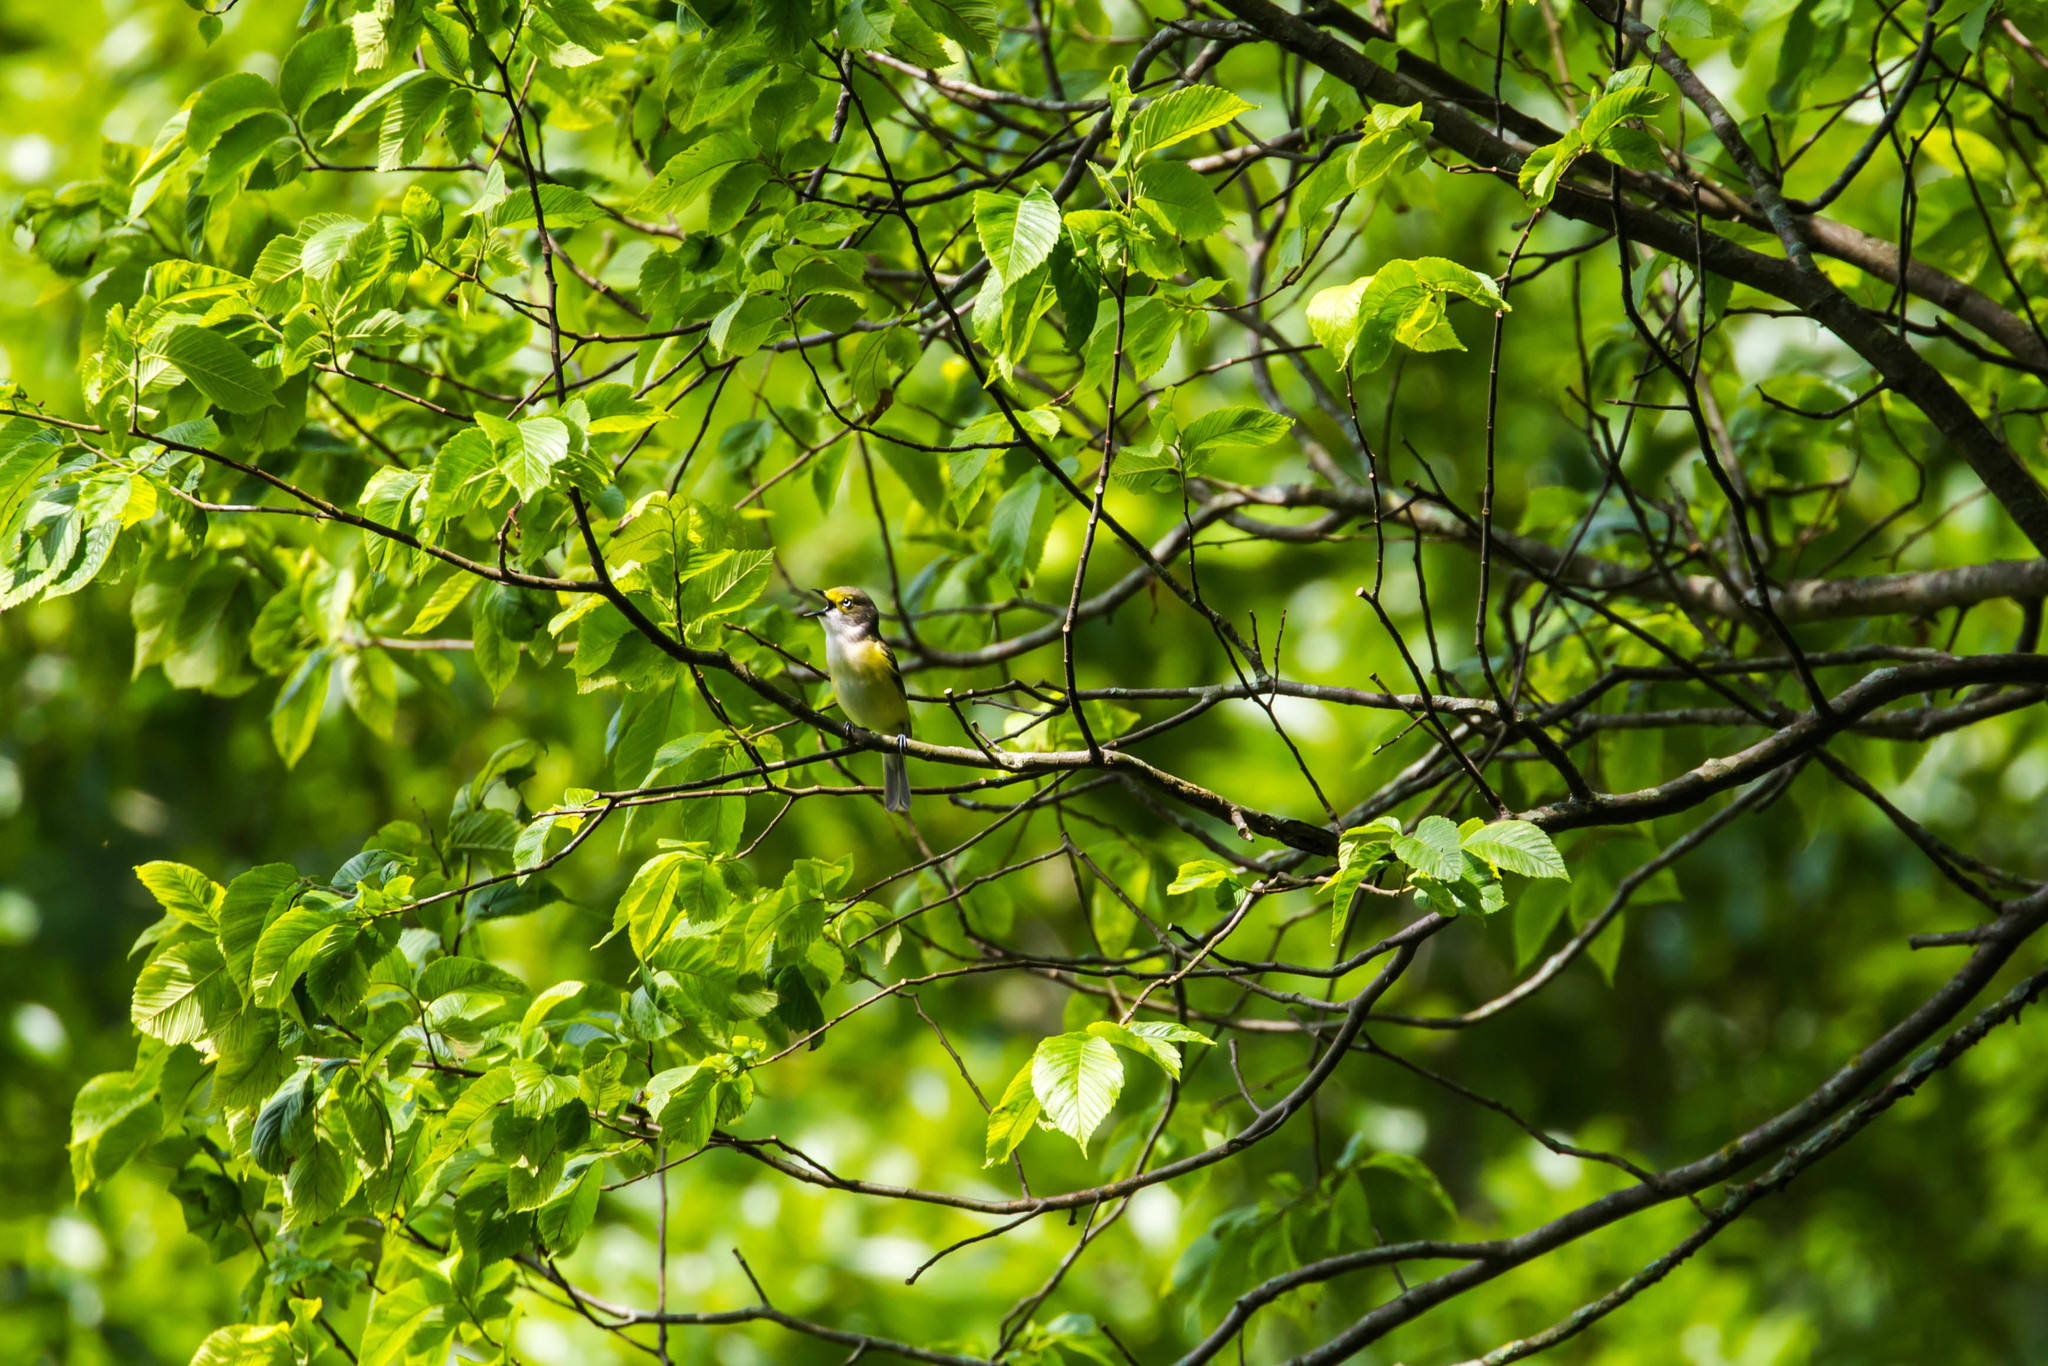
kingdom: Animalia
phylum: Chordata
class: Aves
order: Passeriformes
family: Vireonidae
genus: Vireo
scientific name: Vireo griseus
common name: White-eyed vireo
